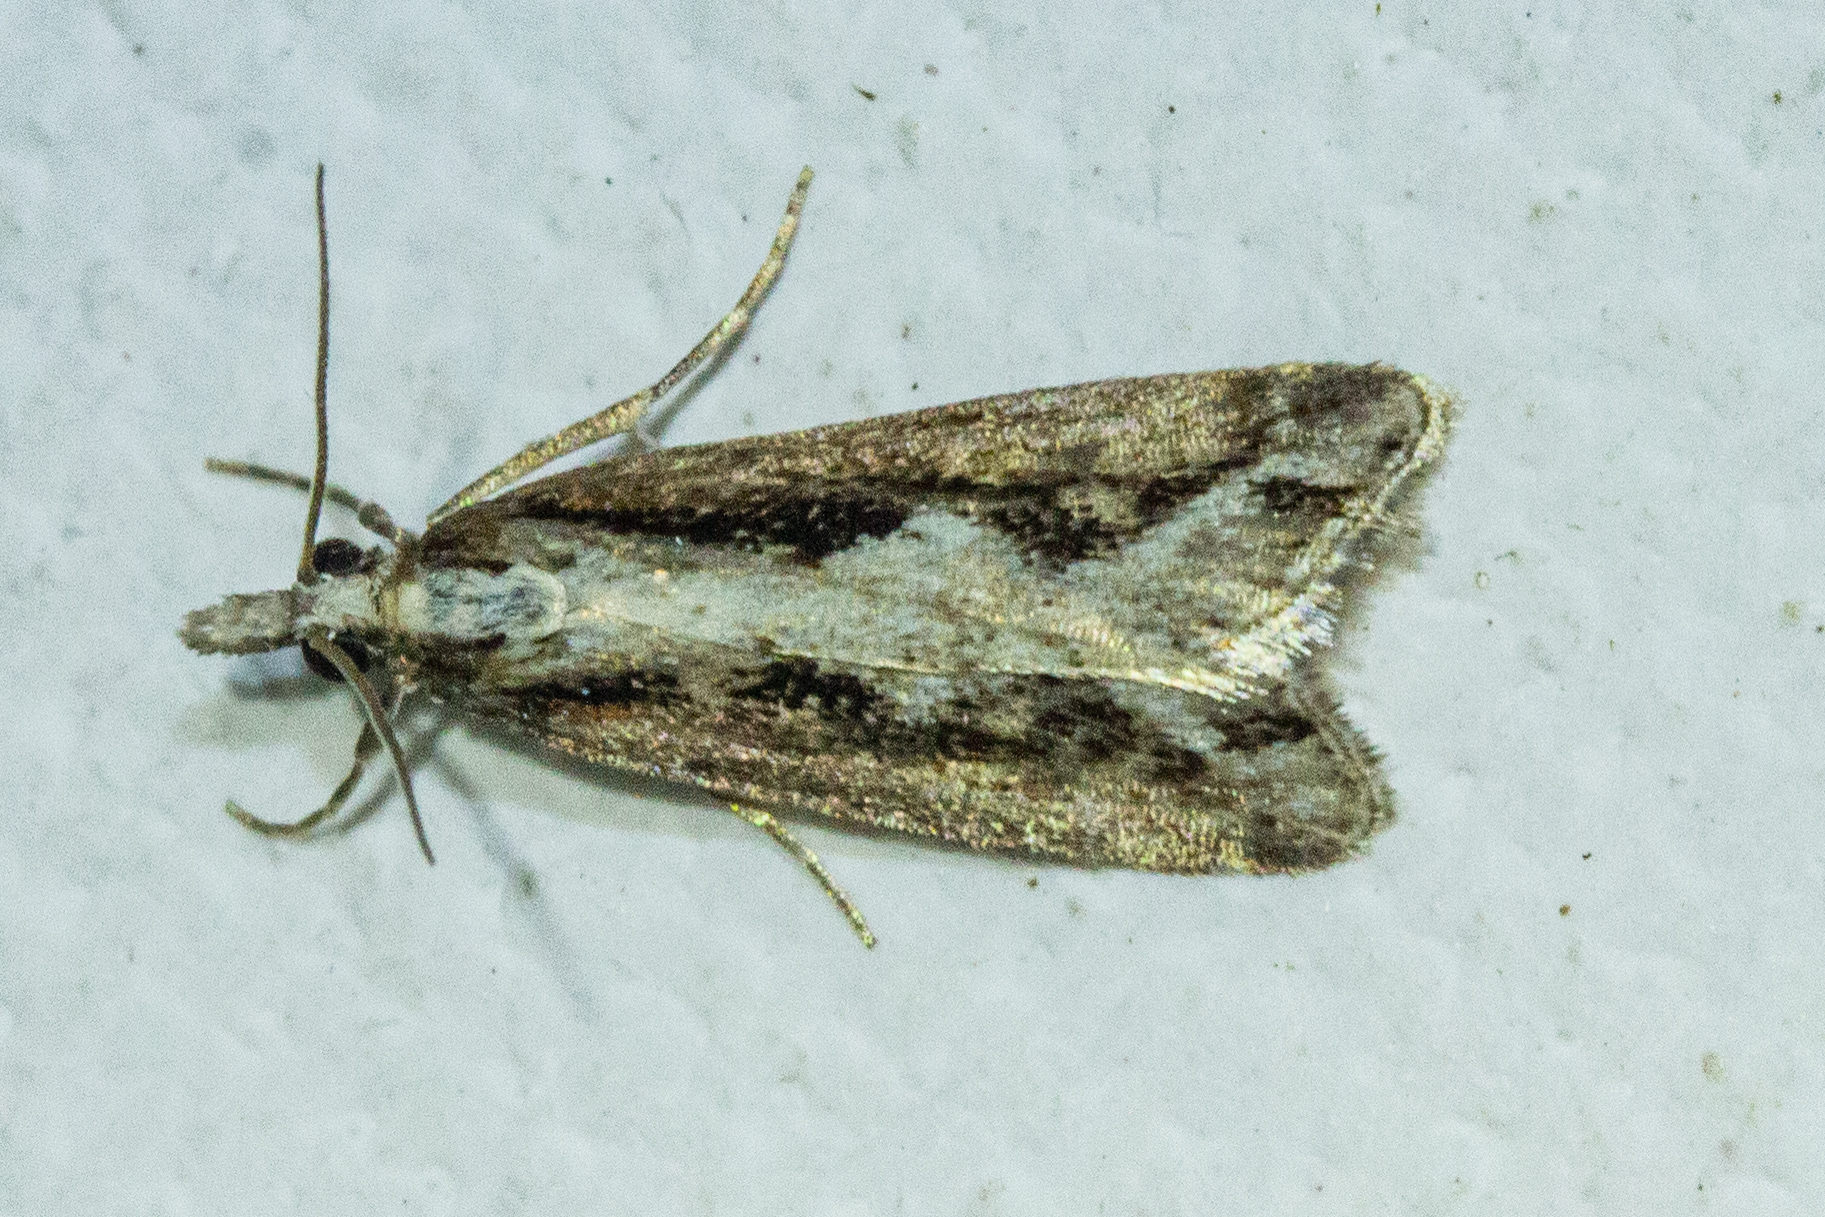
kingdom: Animalia
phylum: Arthropoda
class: Insecta
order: Lepidoptera
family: Crambidae
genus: Eudonia
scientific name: Eudonia steropaea
